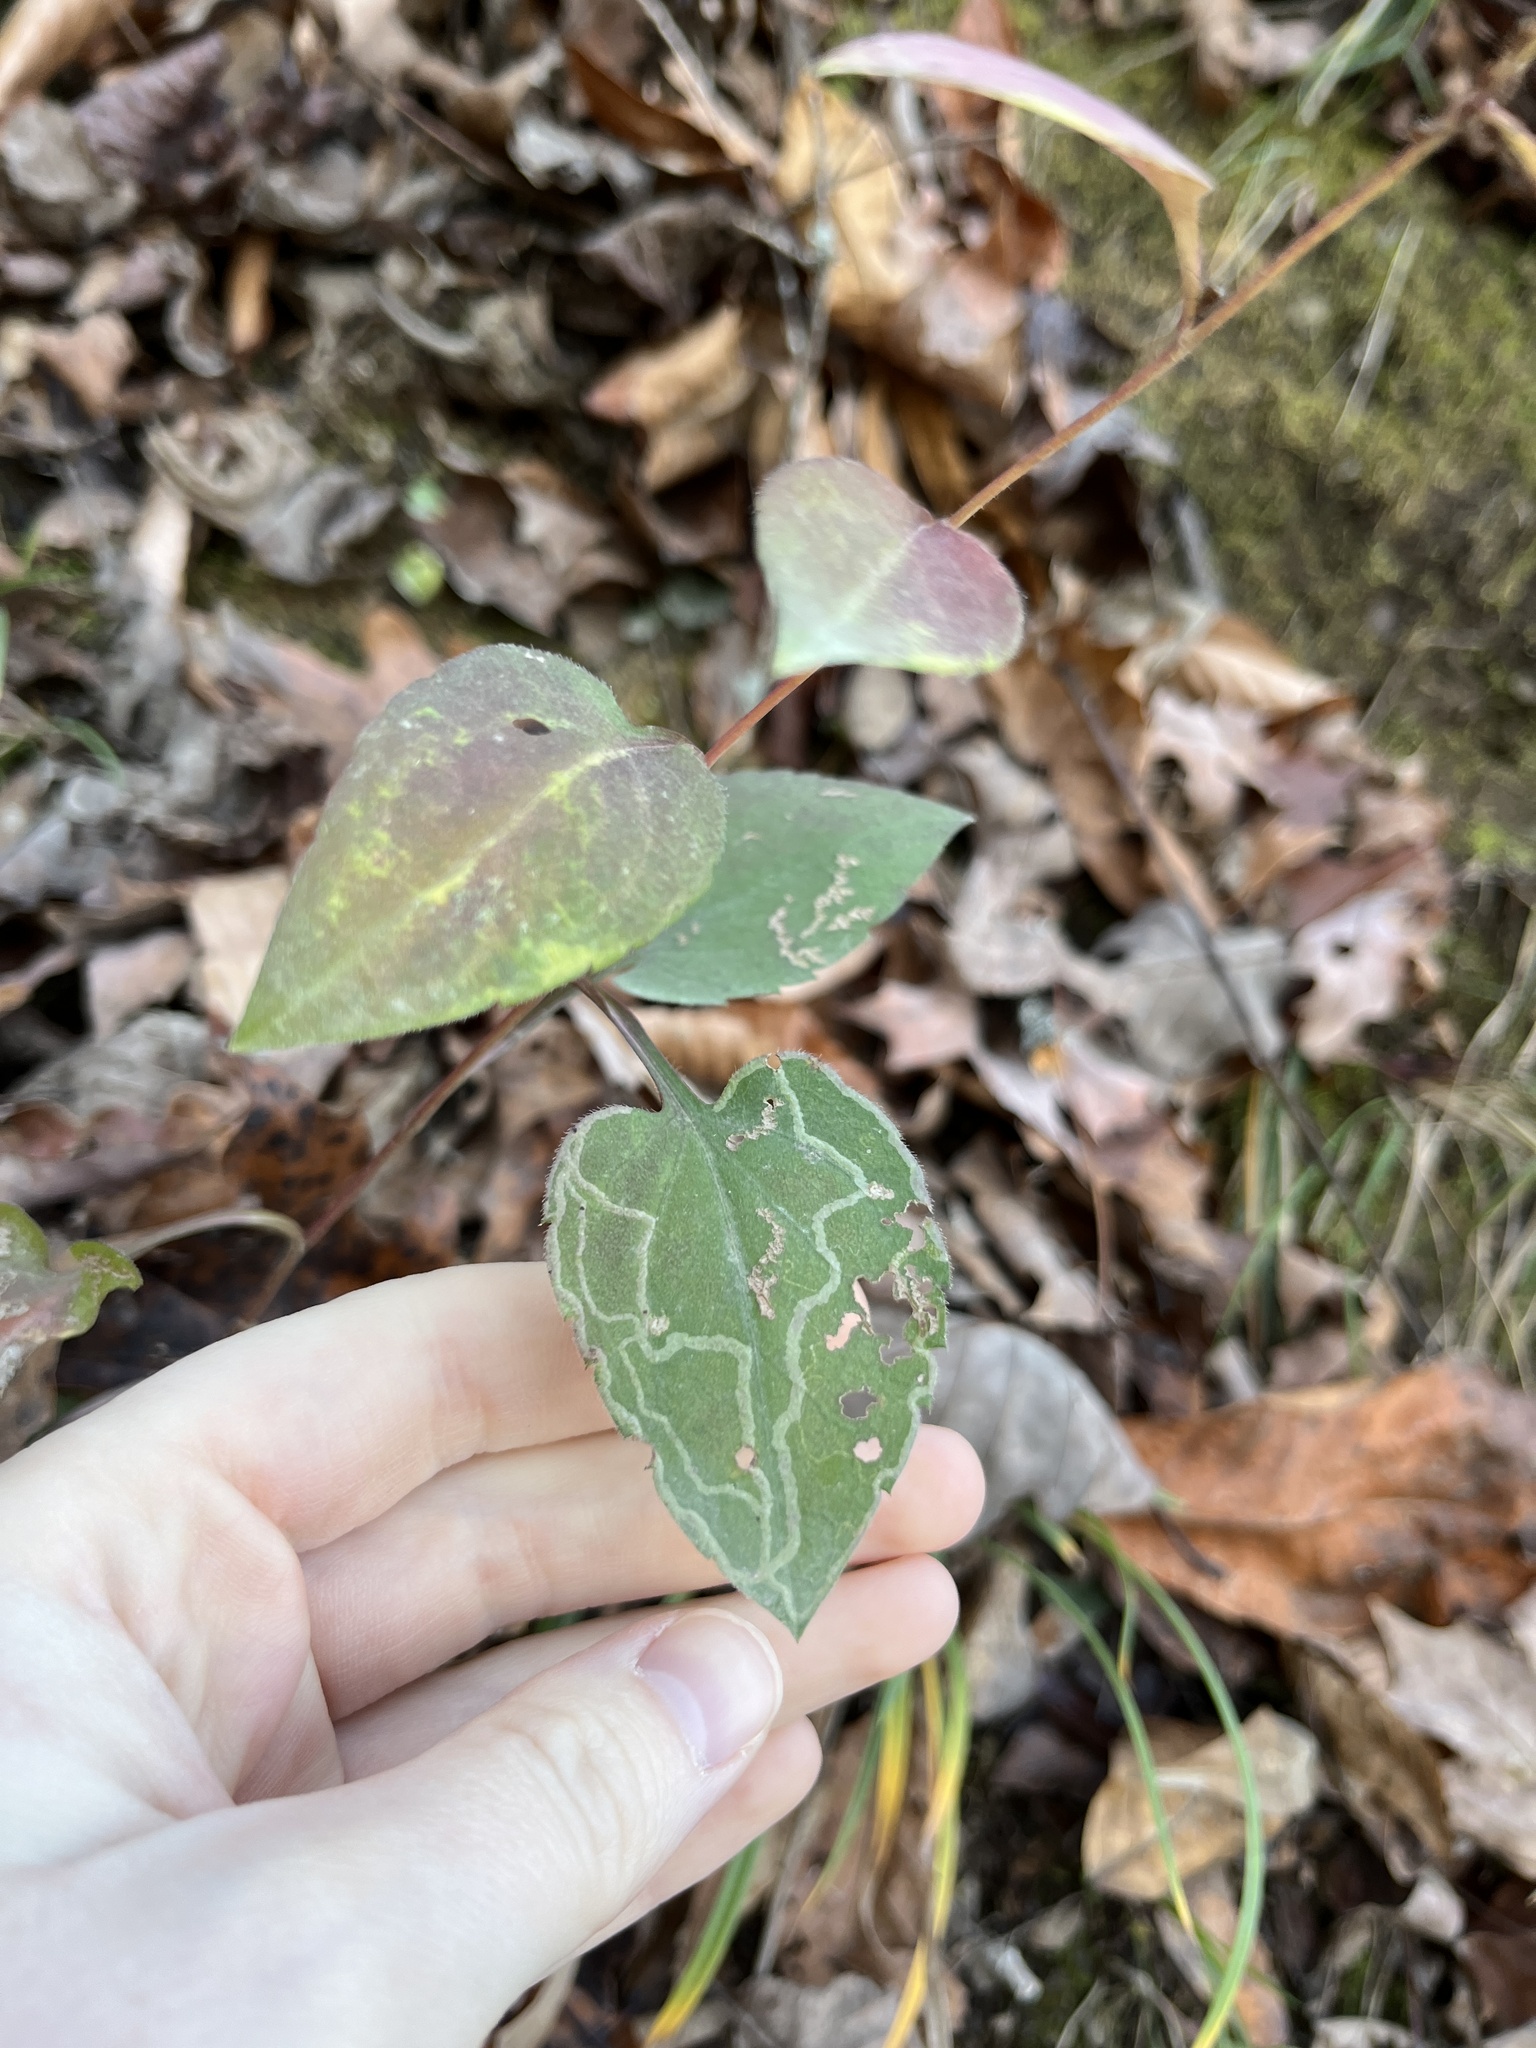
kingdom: Animalia
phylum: Arthropoda
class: Insecta
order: Diptera
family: Agromyzidae
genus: Ophiomyia
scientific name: Ophiomyia parda
